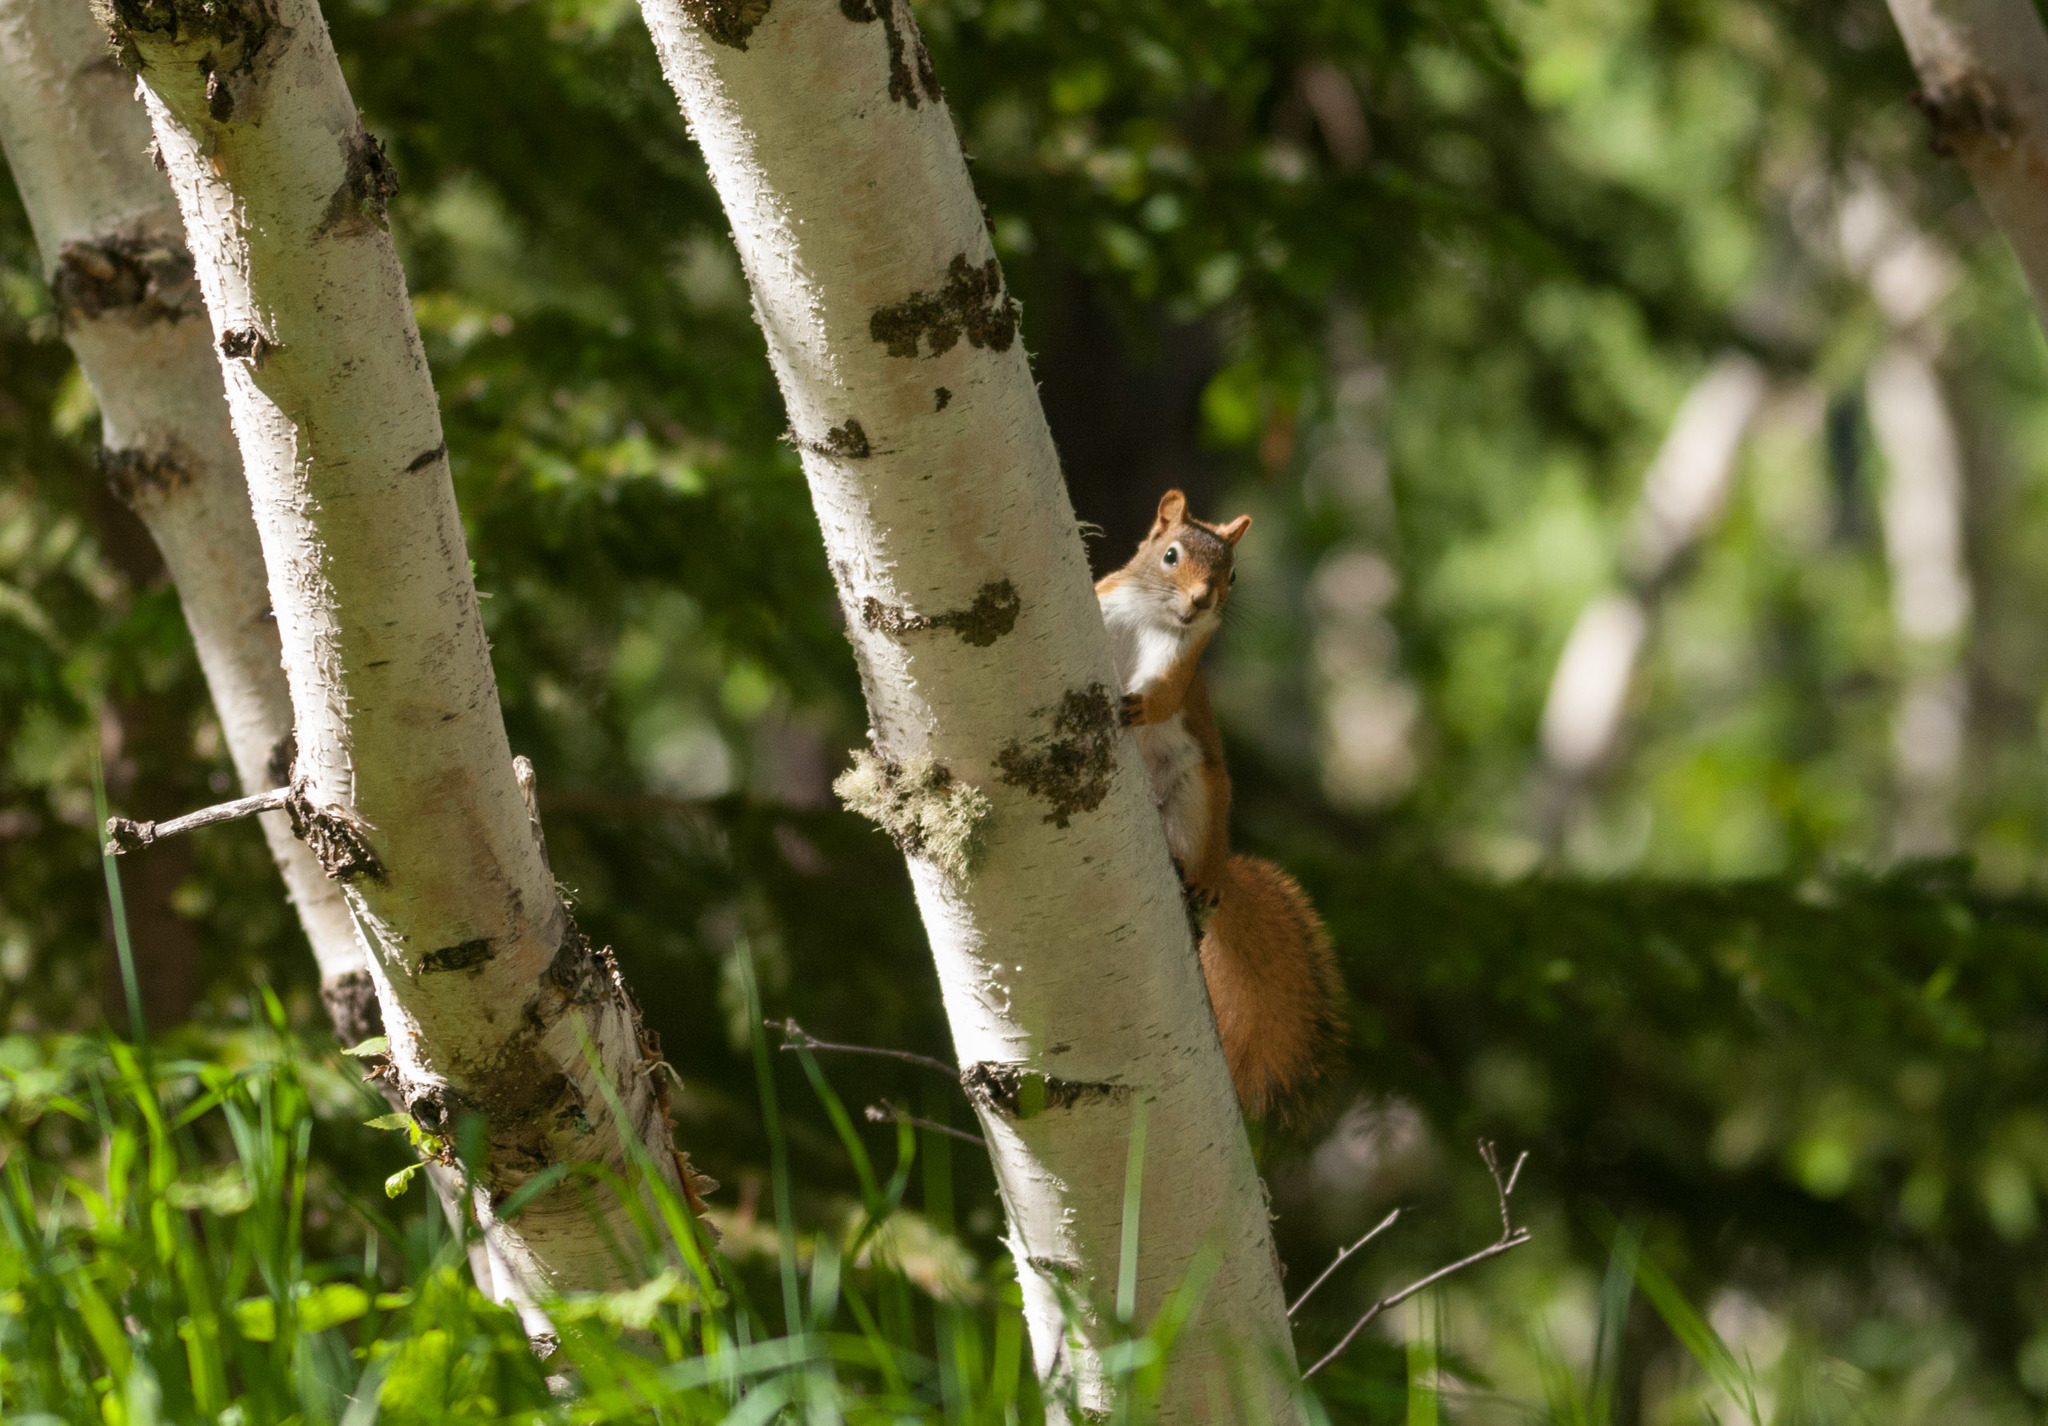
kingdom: Animalia
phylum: Chordata
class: Mammalia
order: Rodentia
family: Sciuridae
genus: Tamiasciurus
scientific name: Tamiasciurus hudsonicus
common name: Red squirrel
